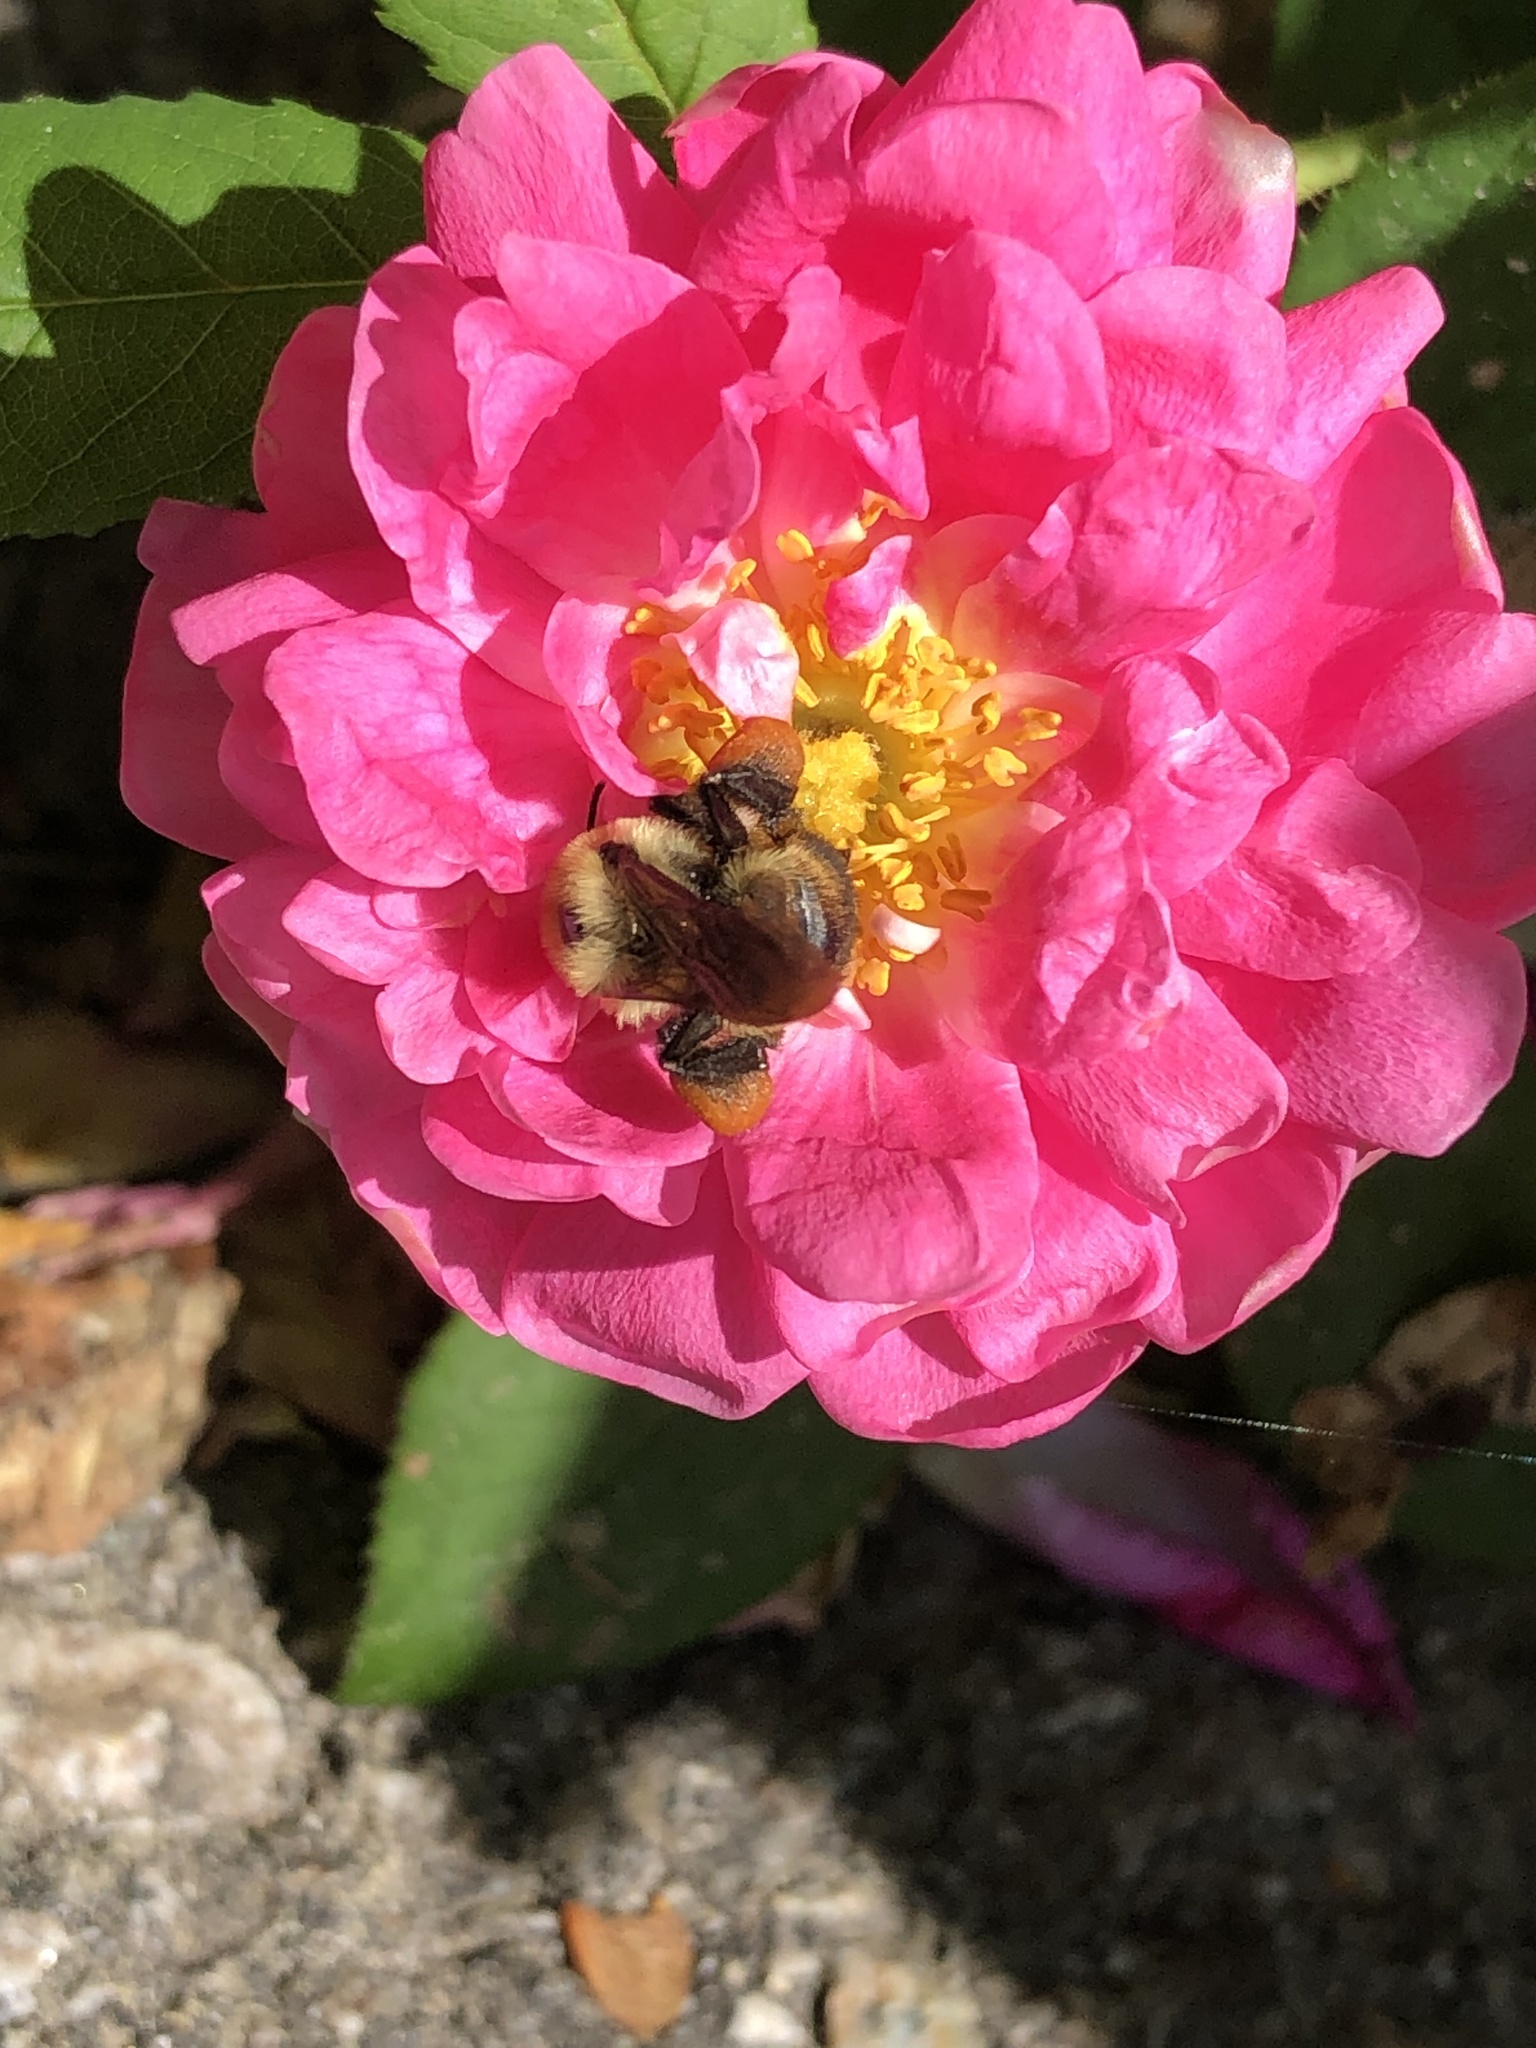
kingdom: Animalia
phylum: Arthropoda
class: Insecta
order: Hymenoptera
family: Apidae
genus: Bombus
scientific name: Bombus griseocollis
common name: Brown-belted bumble bee
